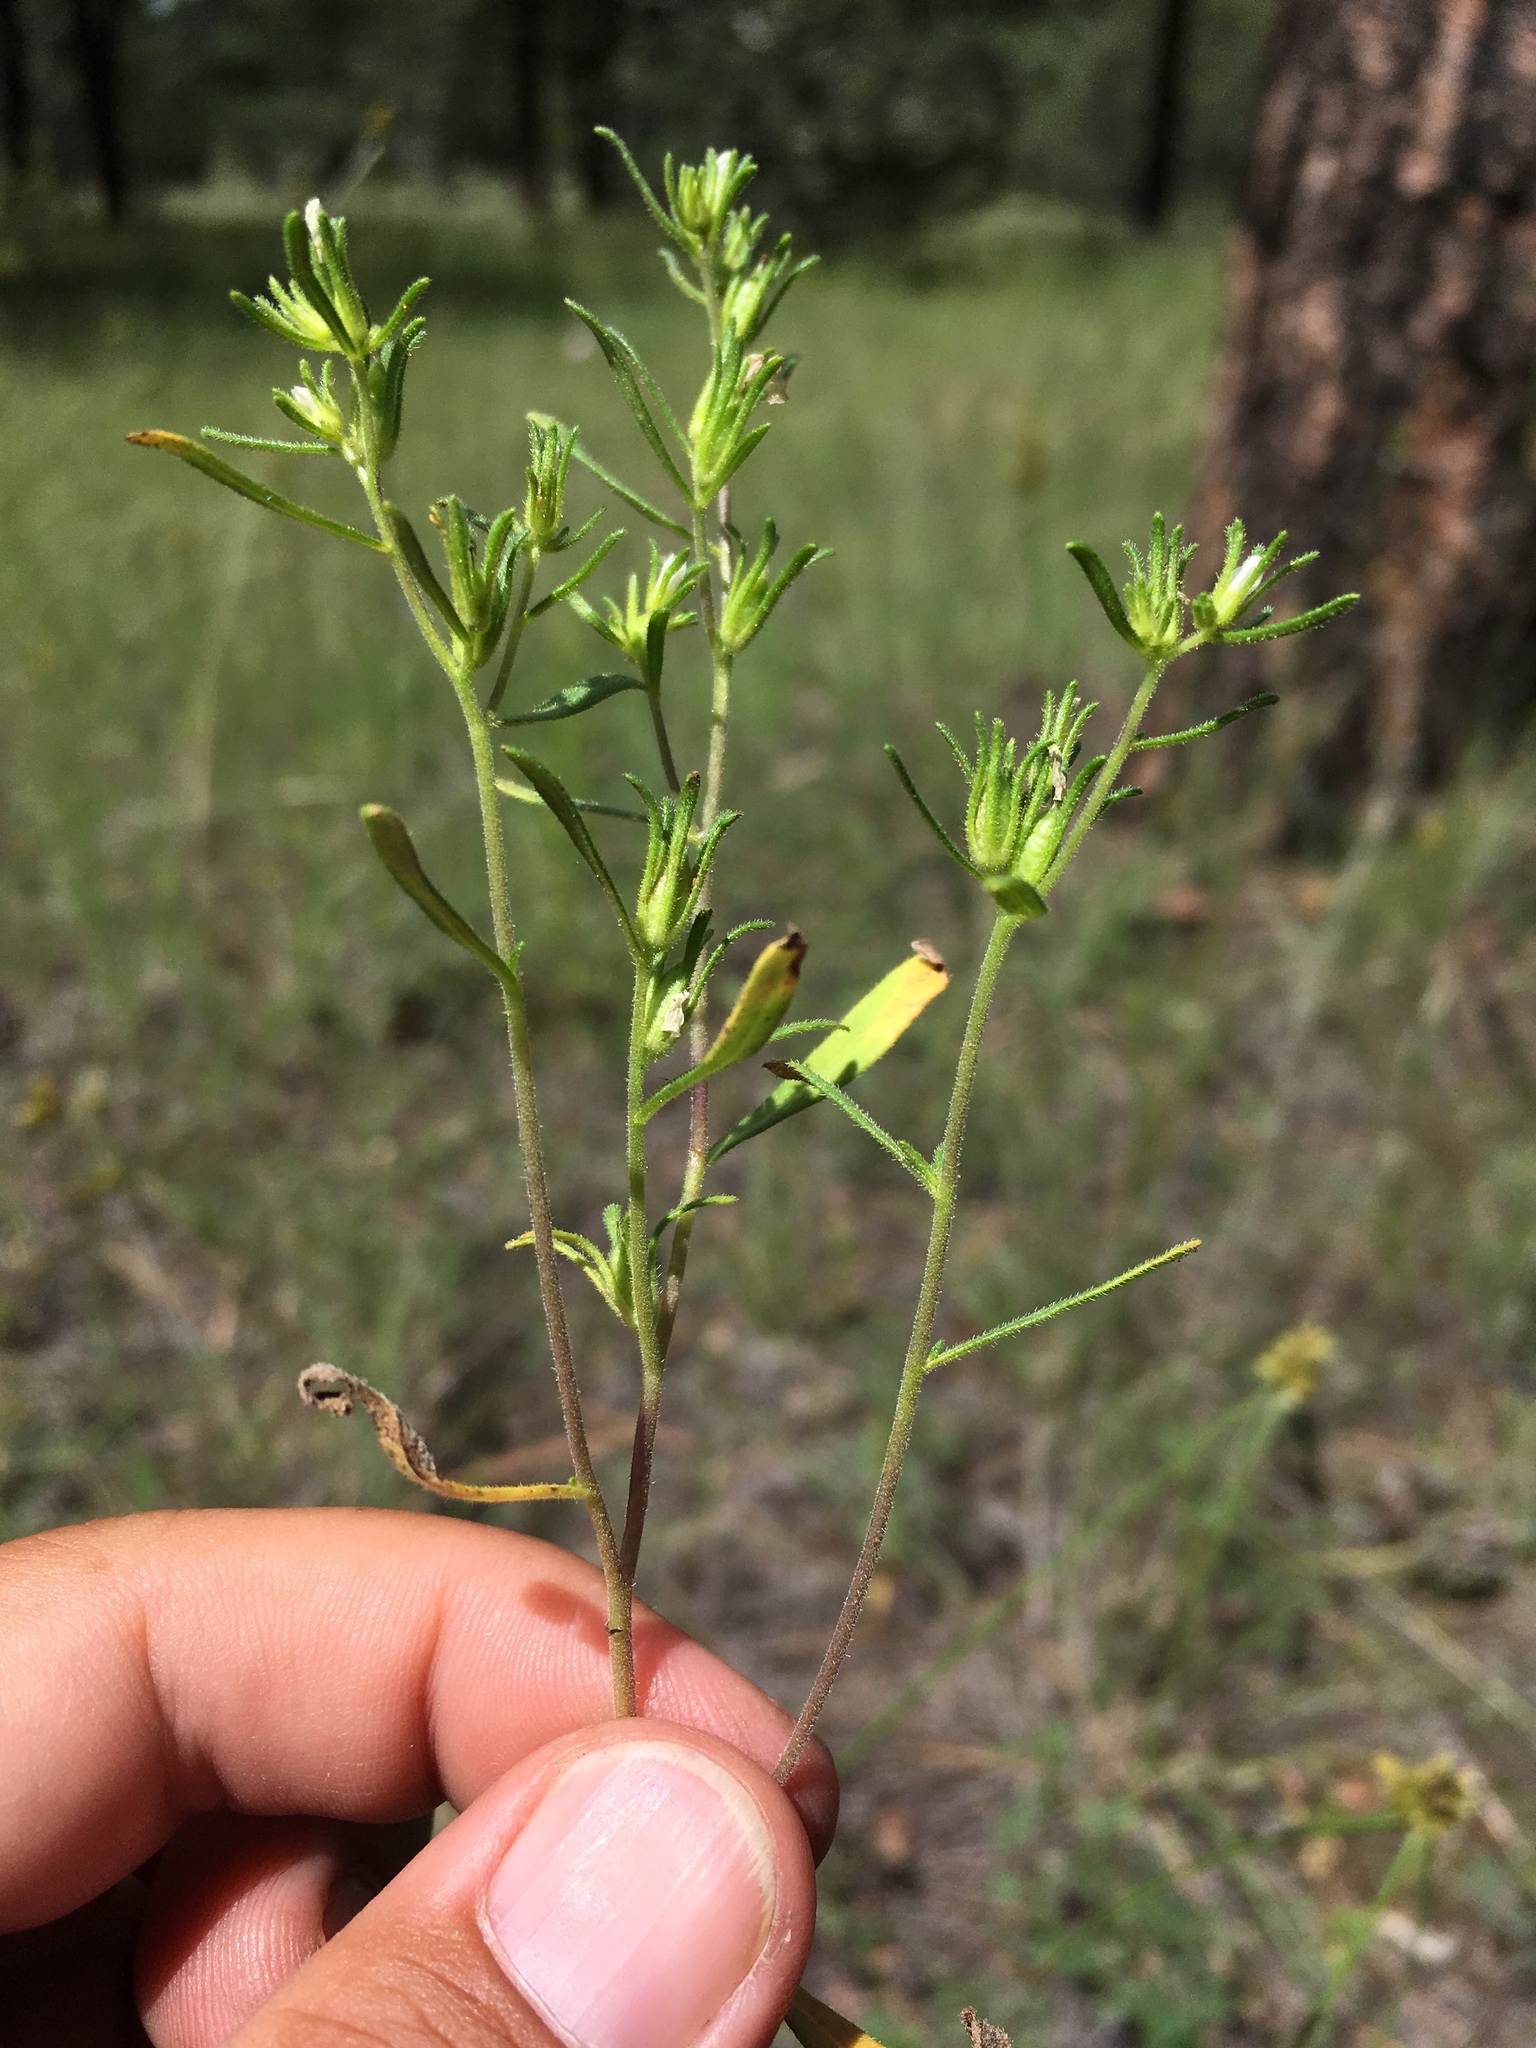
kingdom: Plantae
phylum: Tracheophyta
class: Magnoliopsida
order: Boraginales
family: Namaceae
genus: Nama
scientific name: Nama dichotoma
